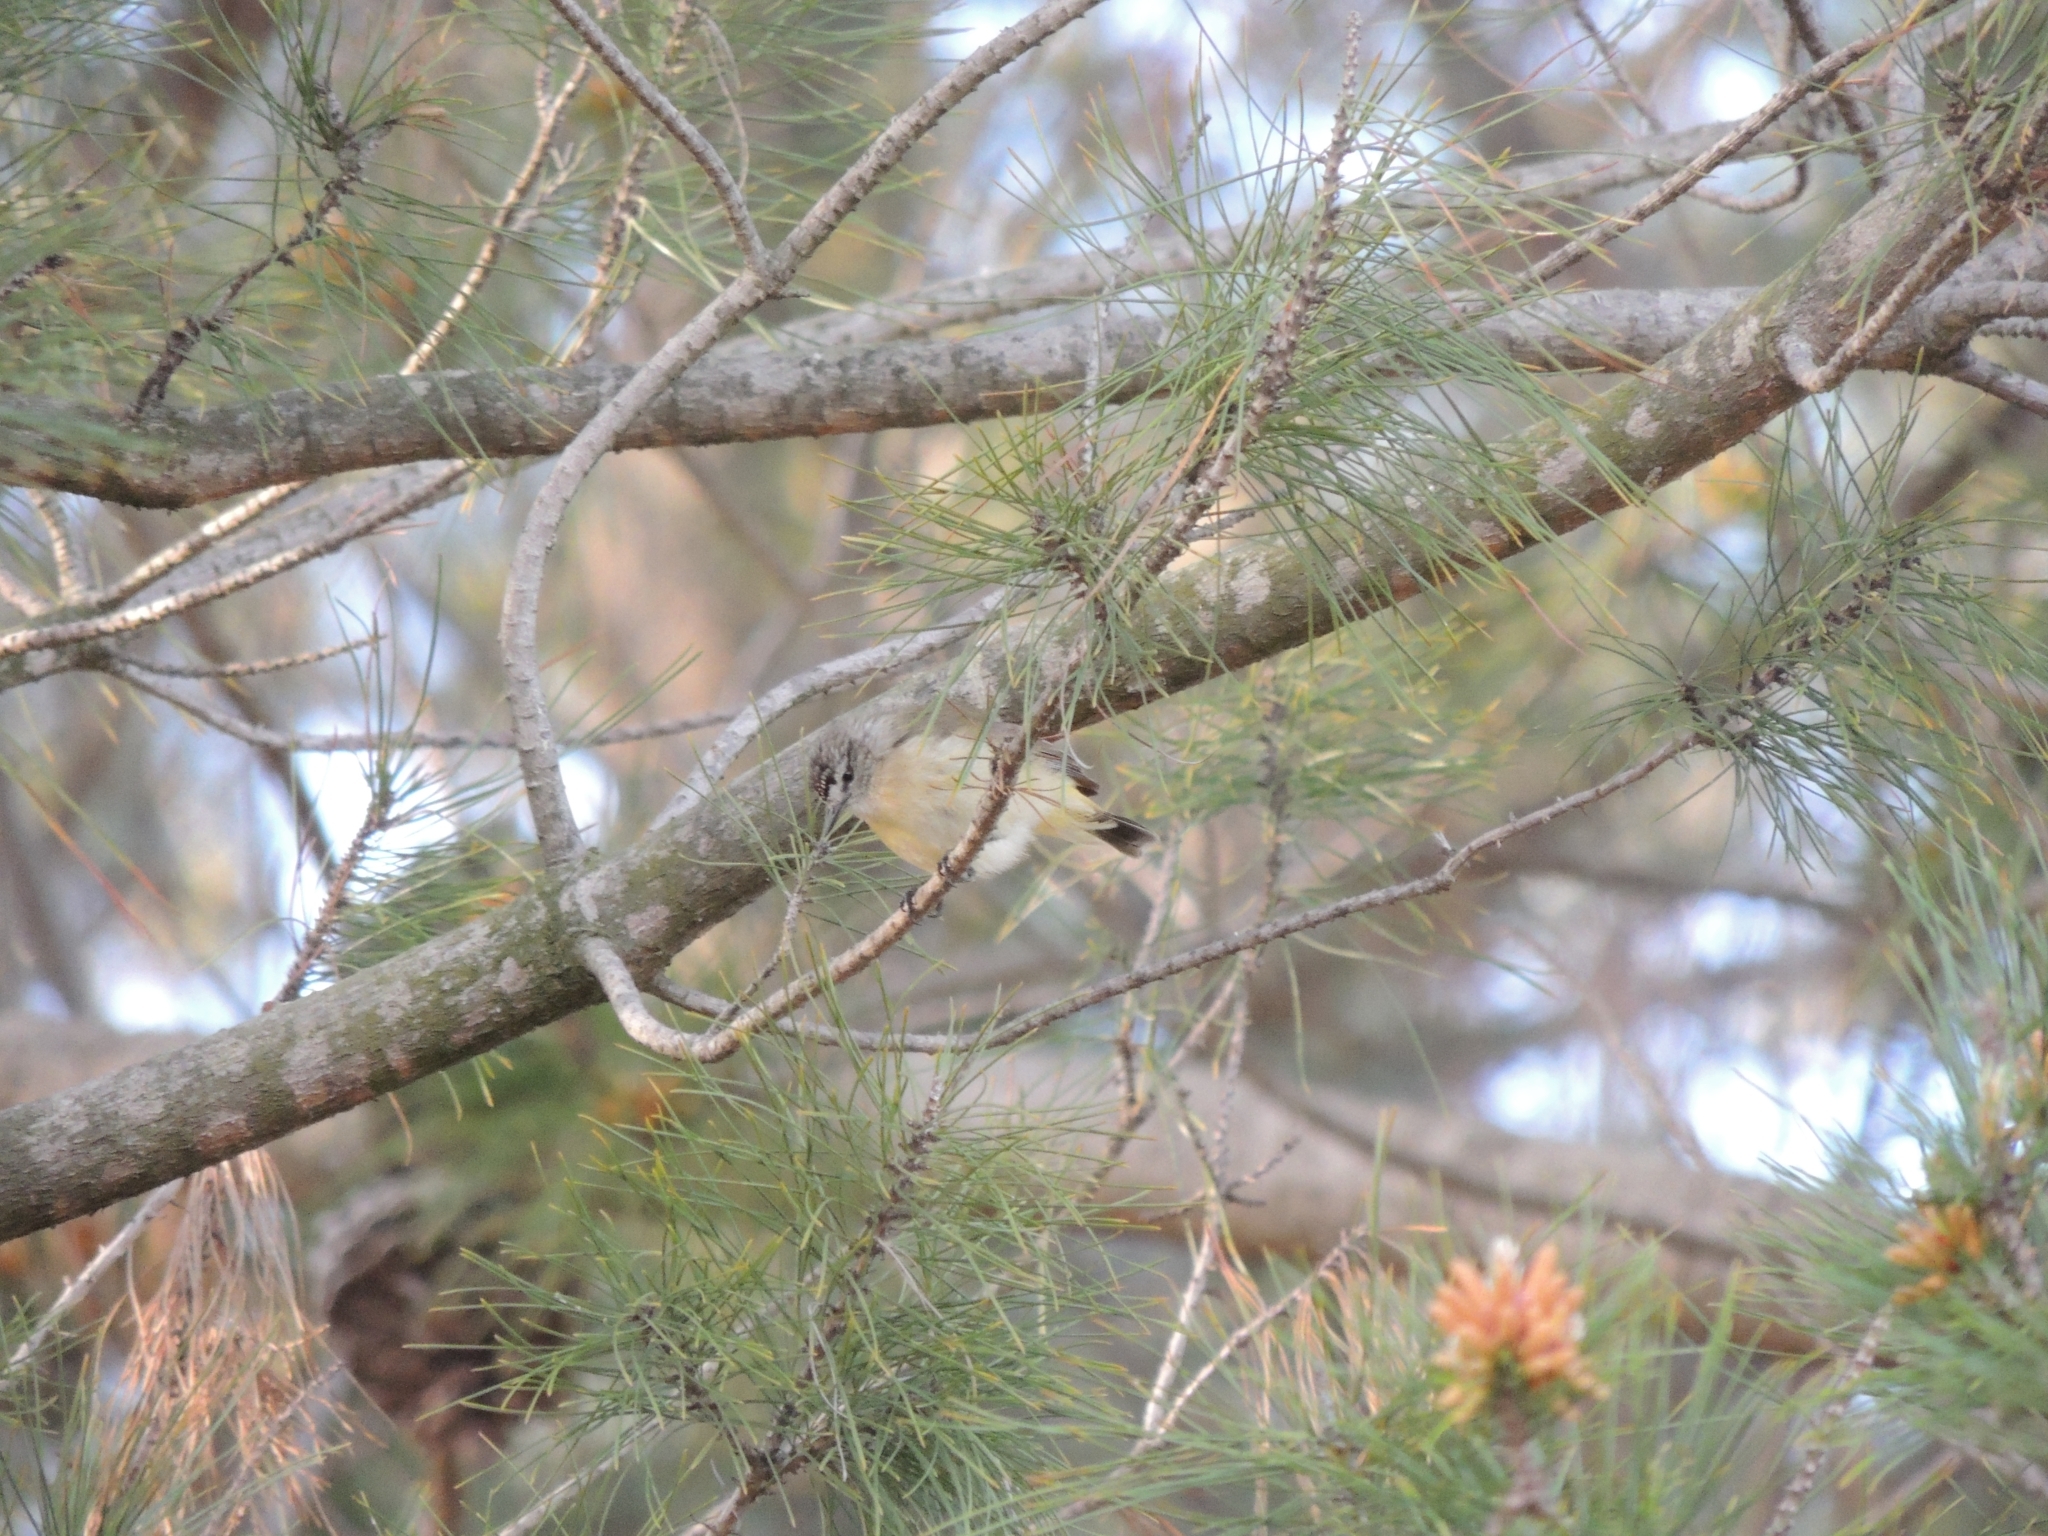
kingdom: Animalia
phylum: Chordata
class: Aves
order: Passeriformes
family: Acanthizidae
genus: Acanthiza
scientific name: Acanthiza chrysorrhoa
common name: Yellow-rumped thornbill
